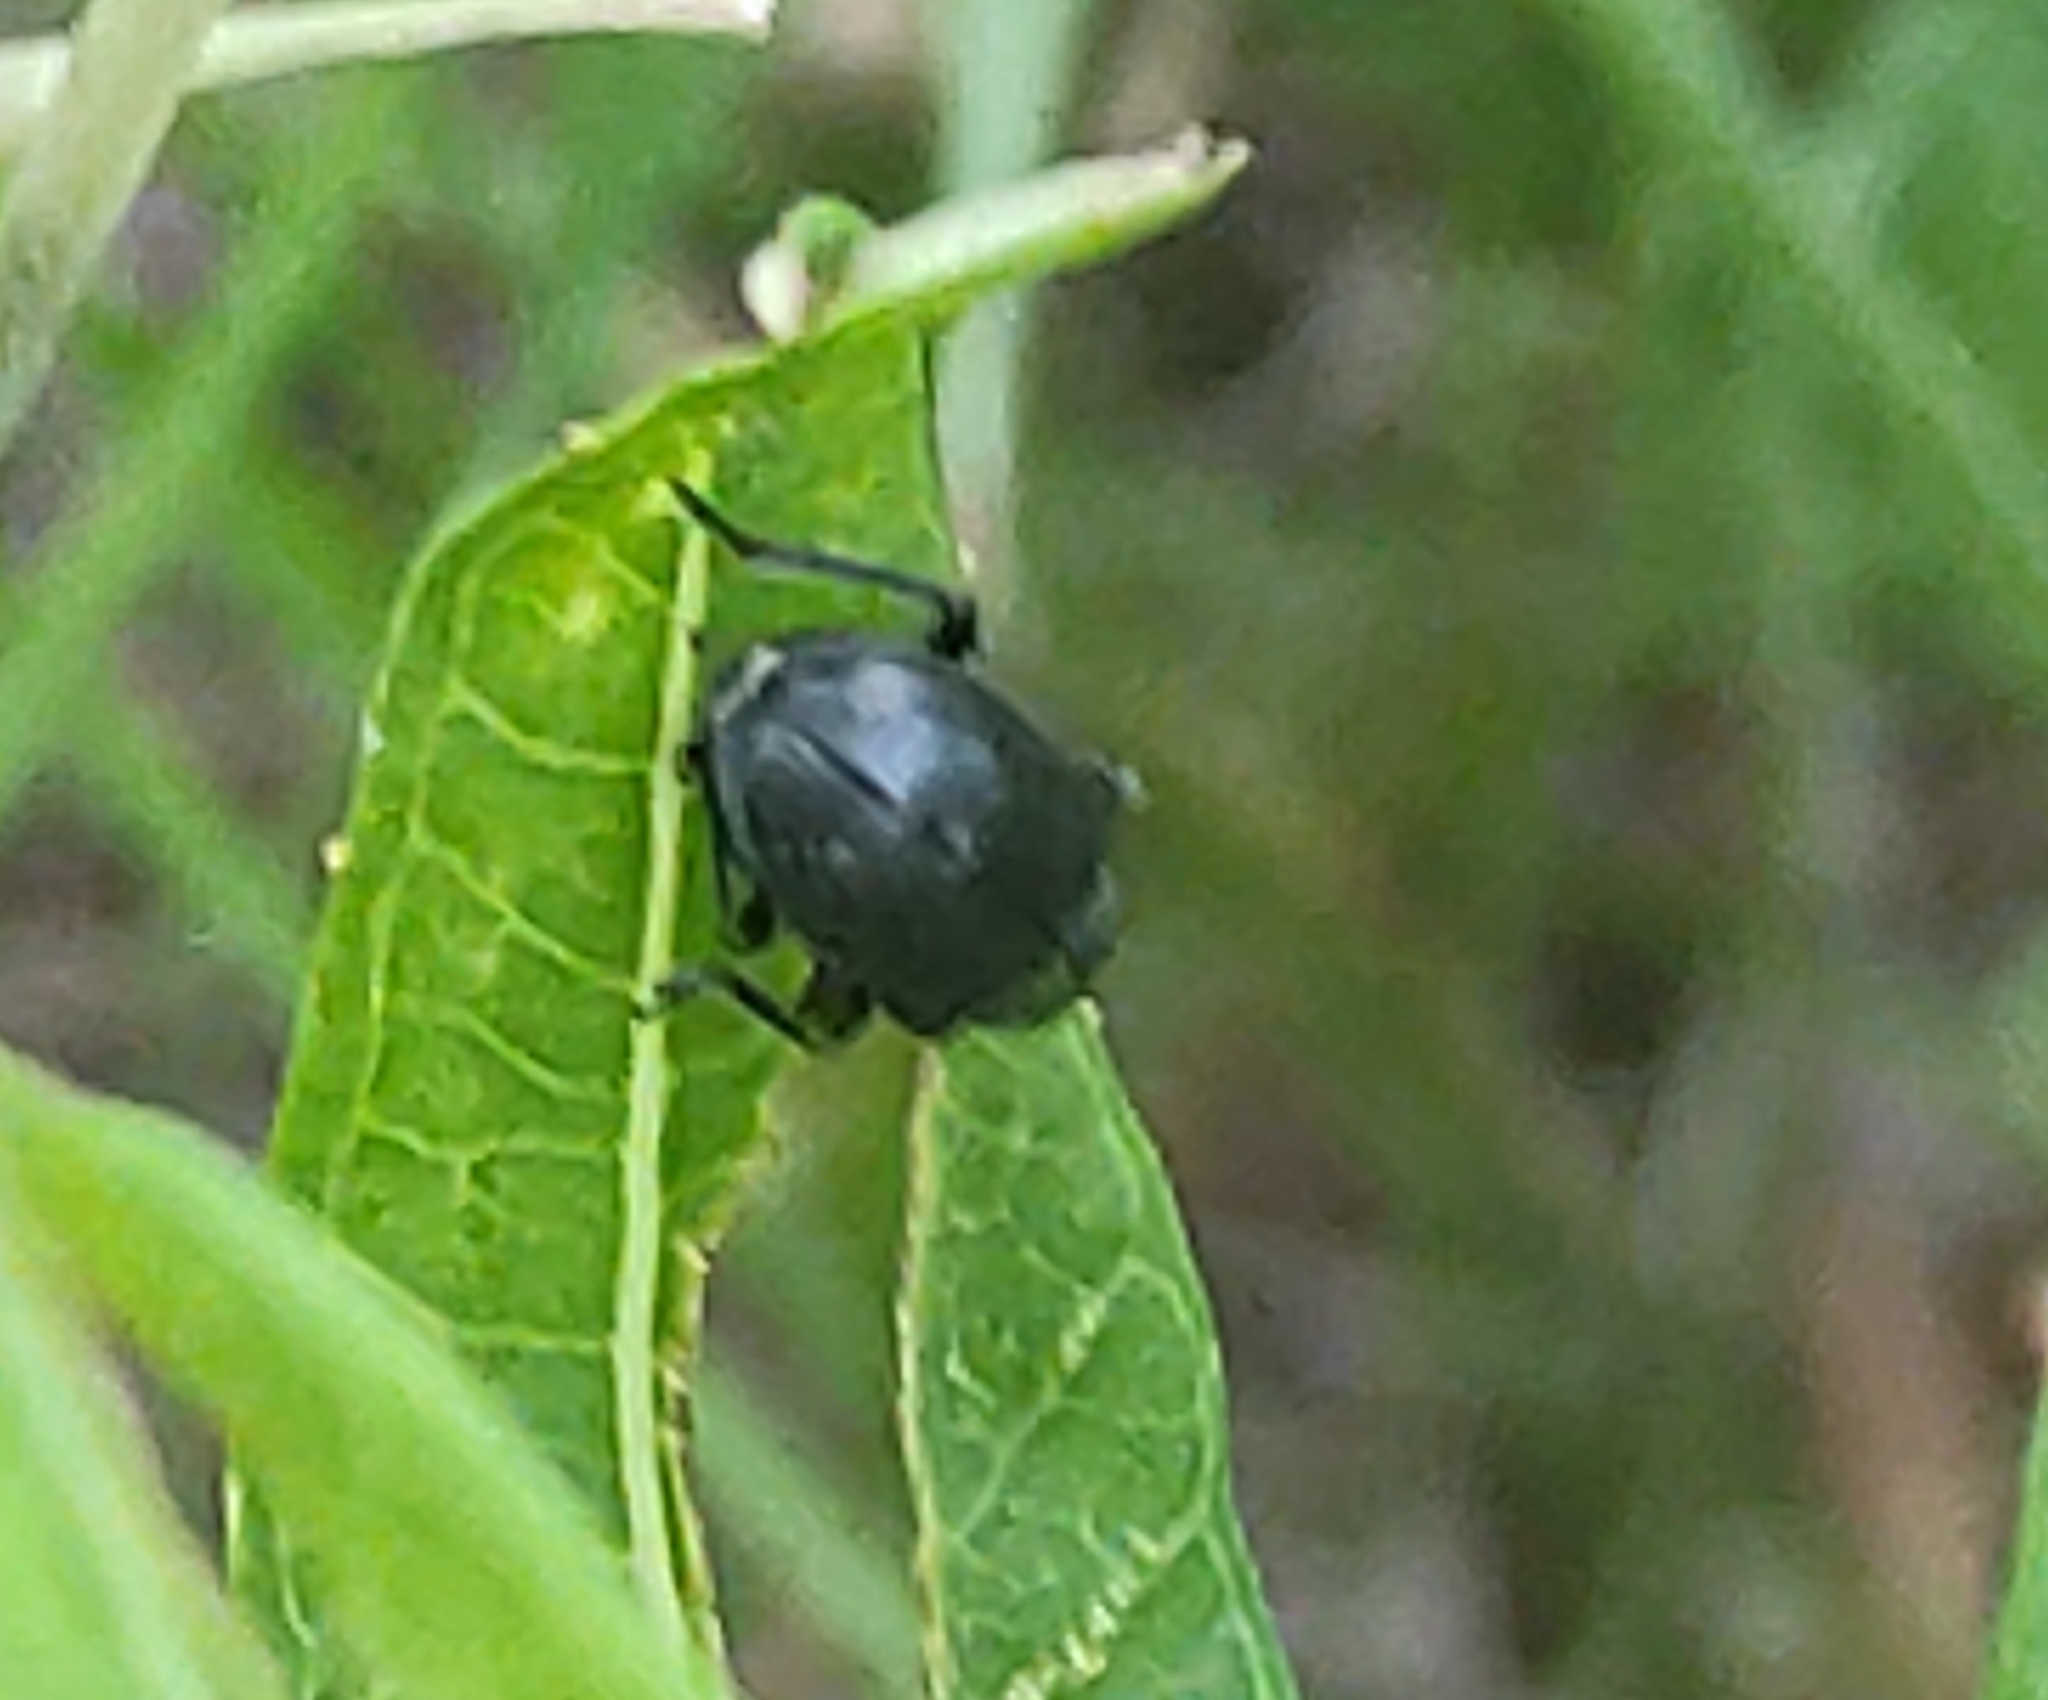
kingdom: Animalia
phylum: Arthropoda
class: Insecta
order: Coleoptera
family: Chrysomelidae
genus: Bromius
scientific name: Bromius obscurus
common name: Western grape rootworm
